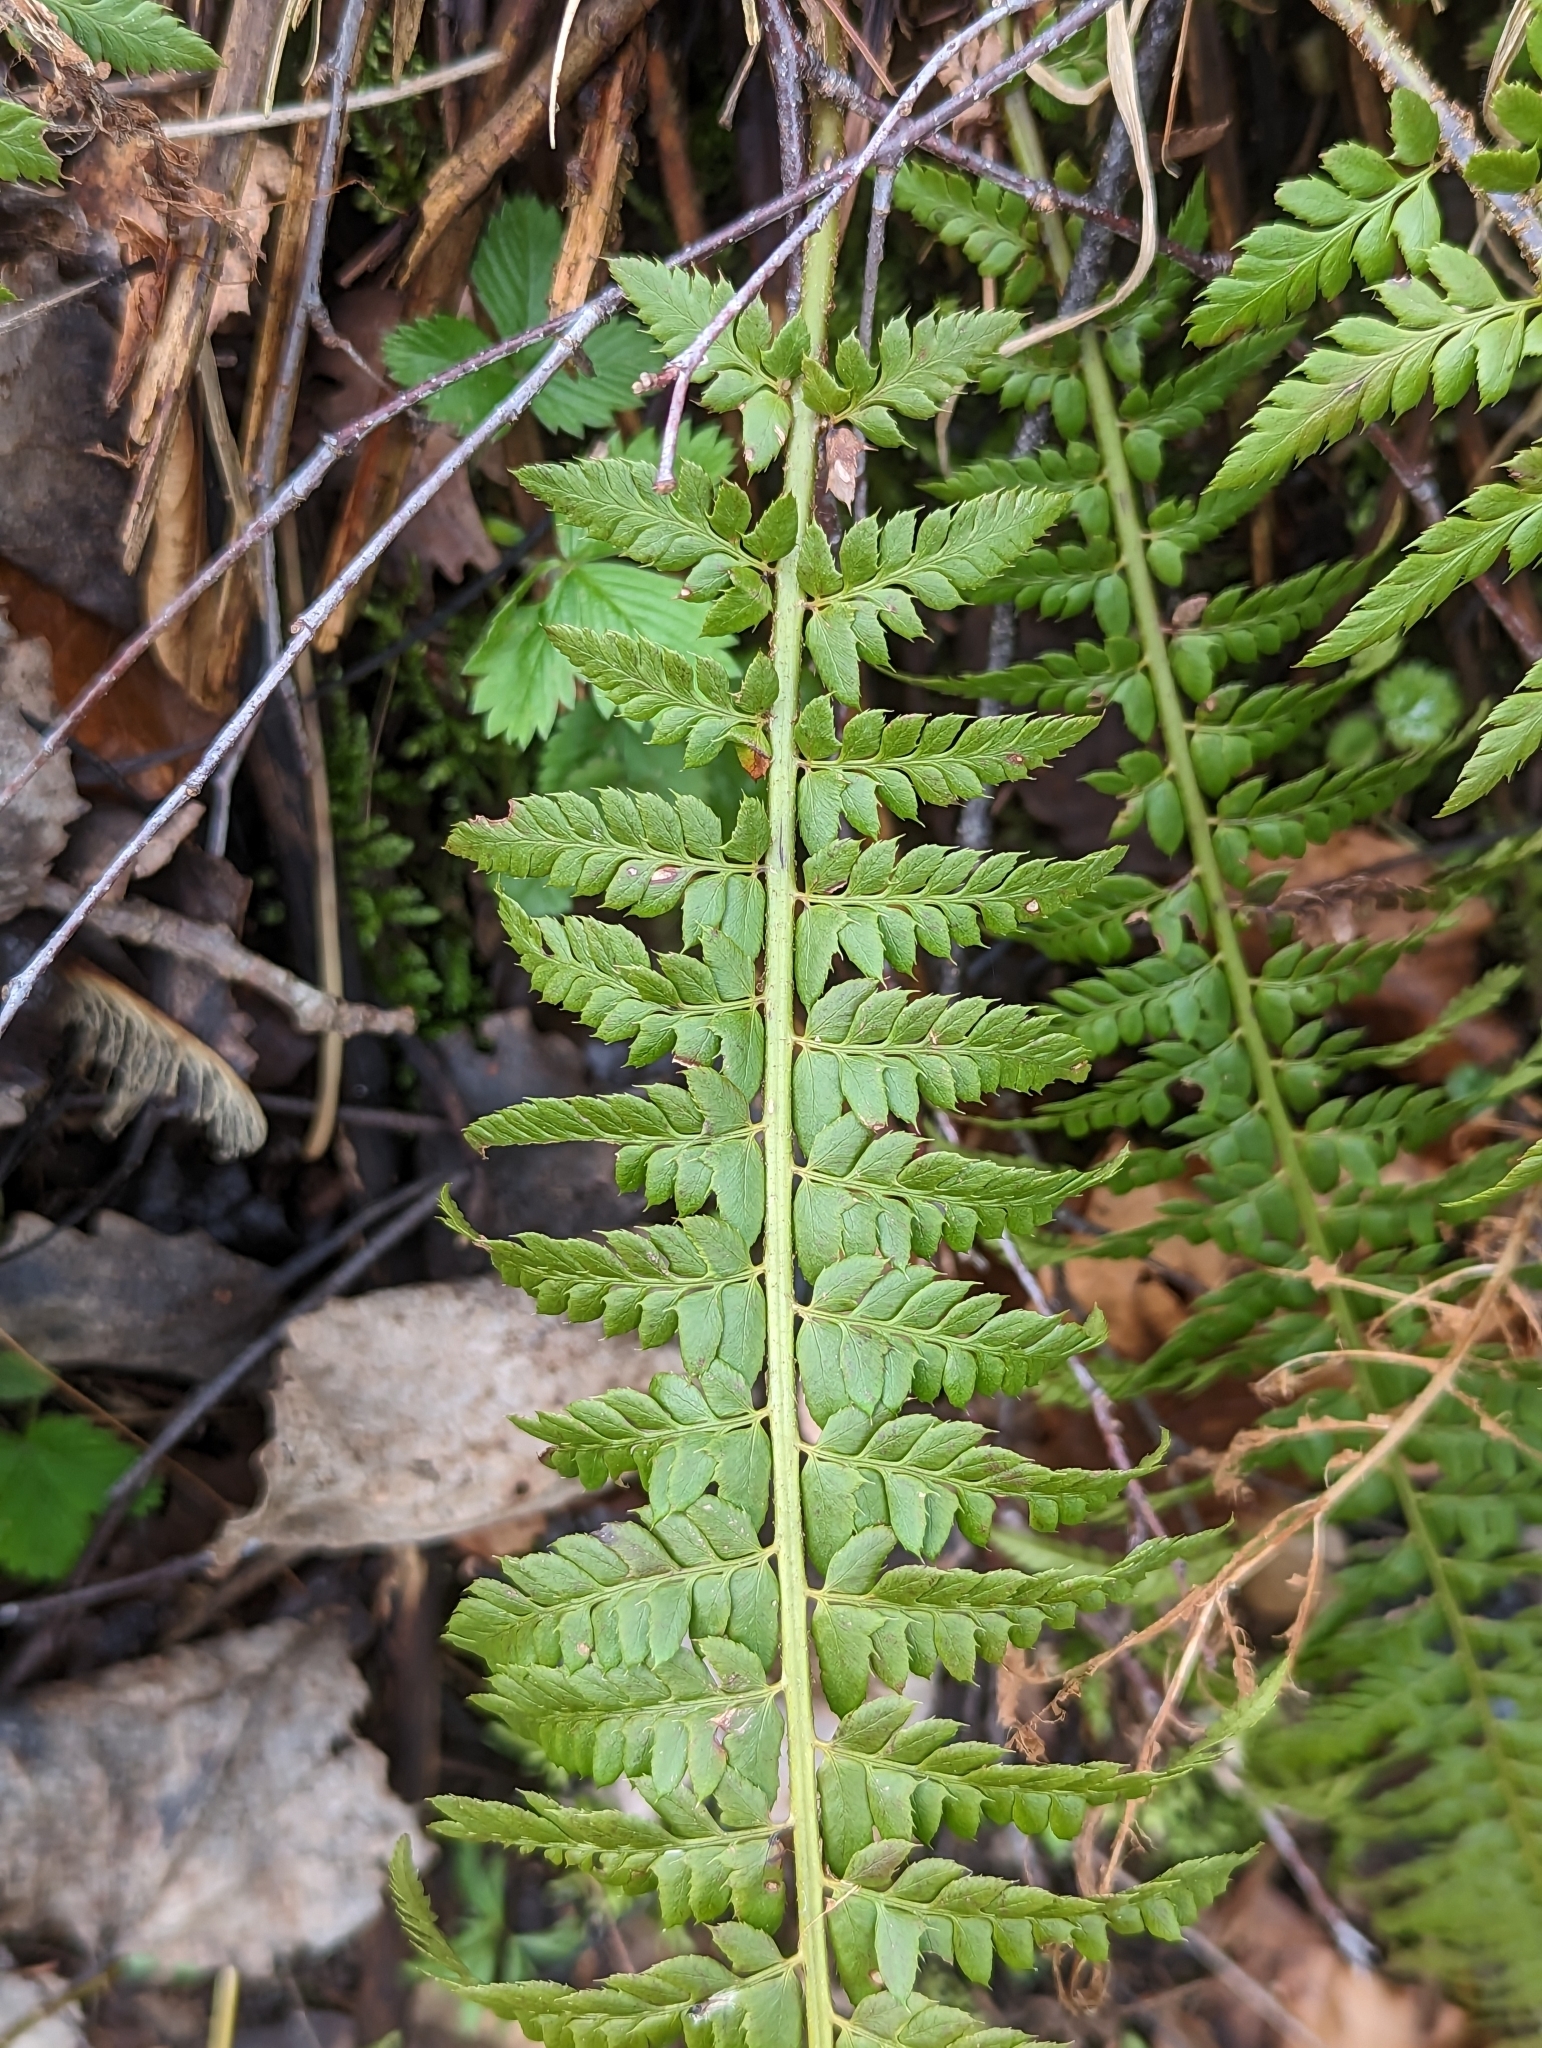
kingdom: Plantae
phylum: Tracheophyta
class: Polypodiopsida
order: Polypodiales
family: Dryopteridaceae
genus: Polystichum
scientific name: Polystichum aculeatum
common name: Hard shield-fern
